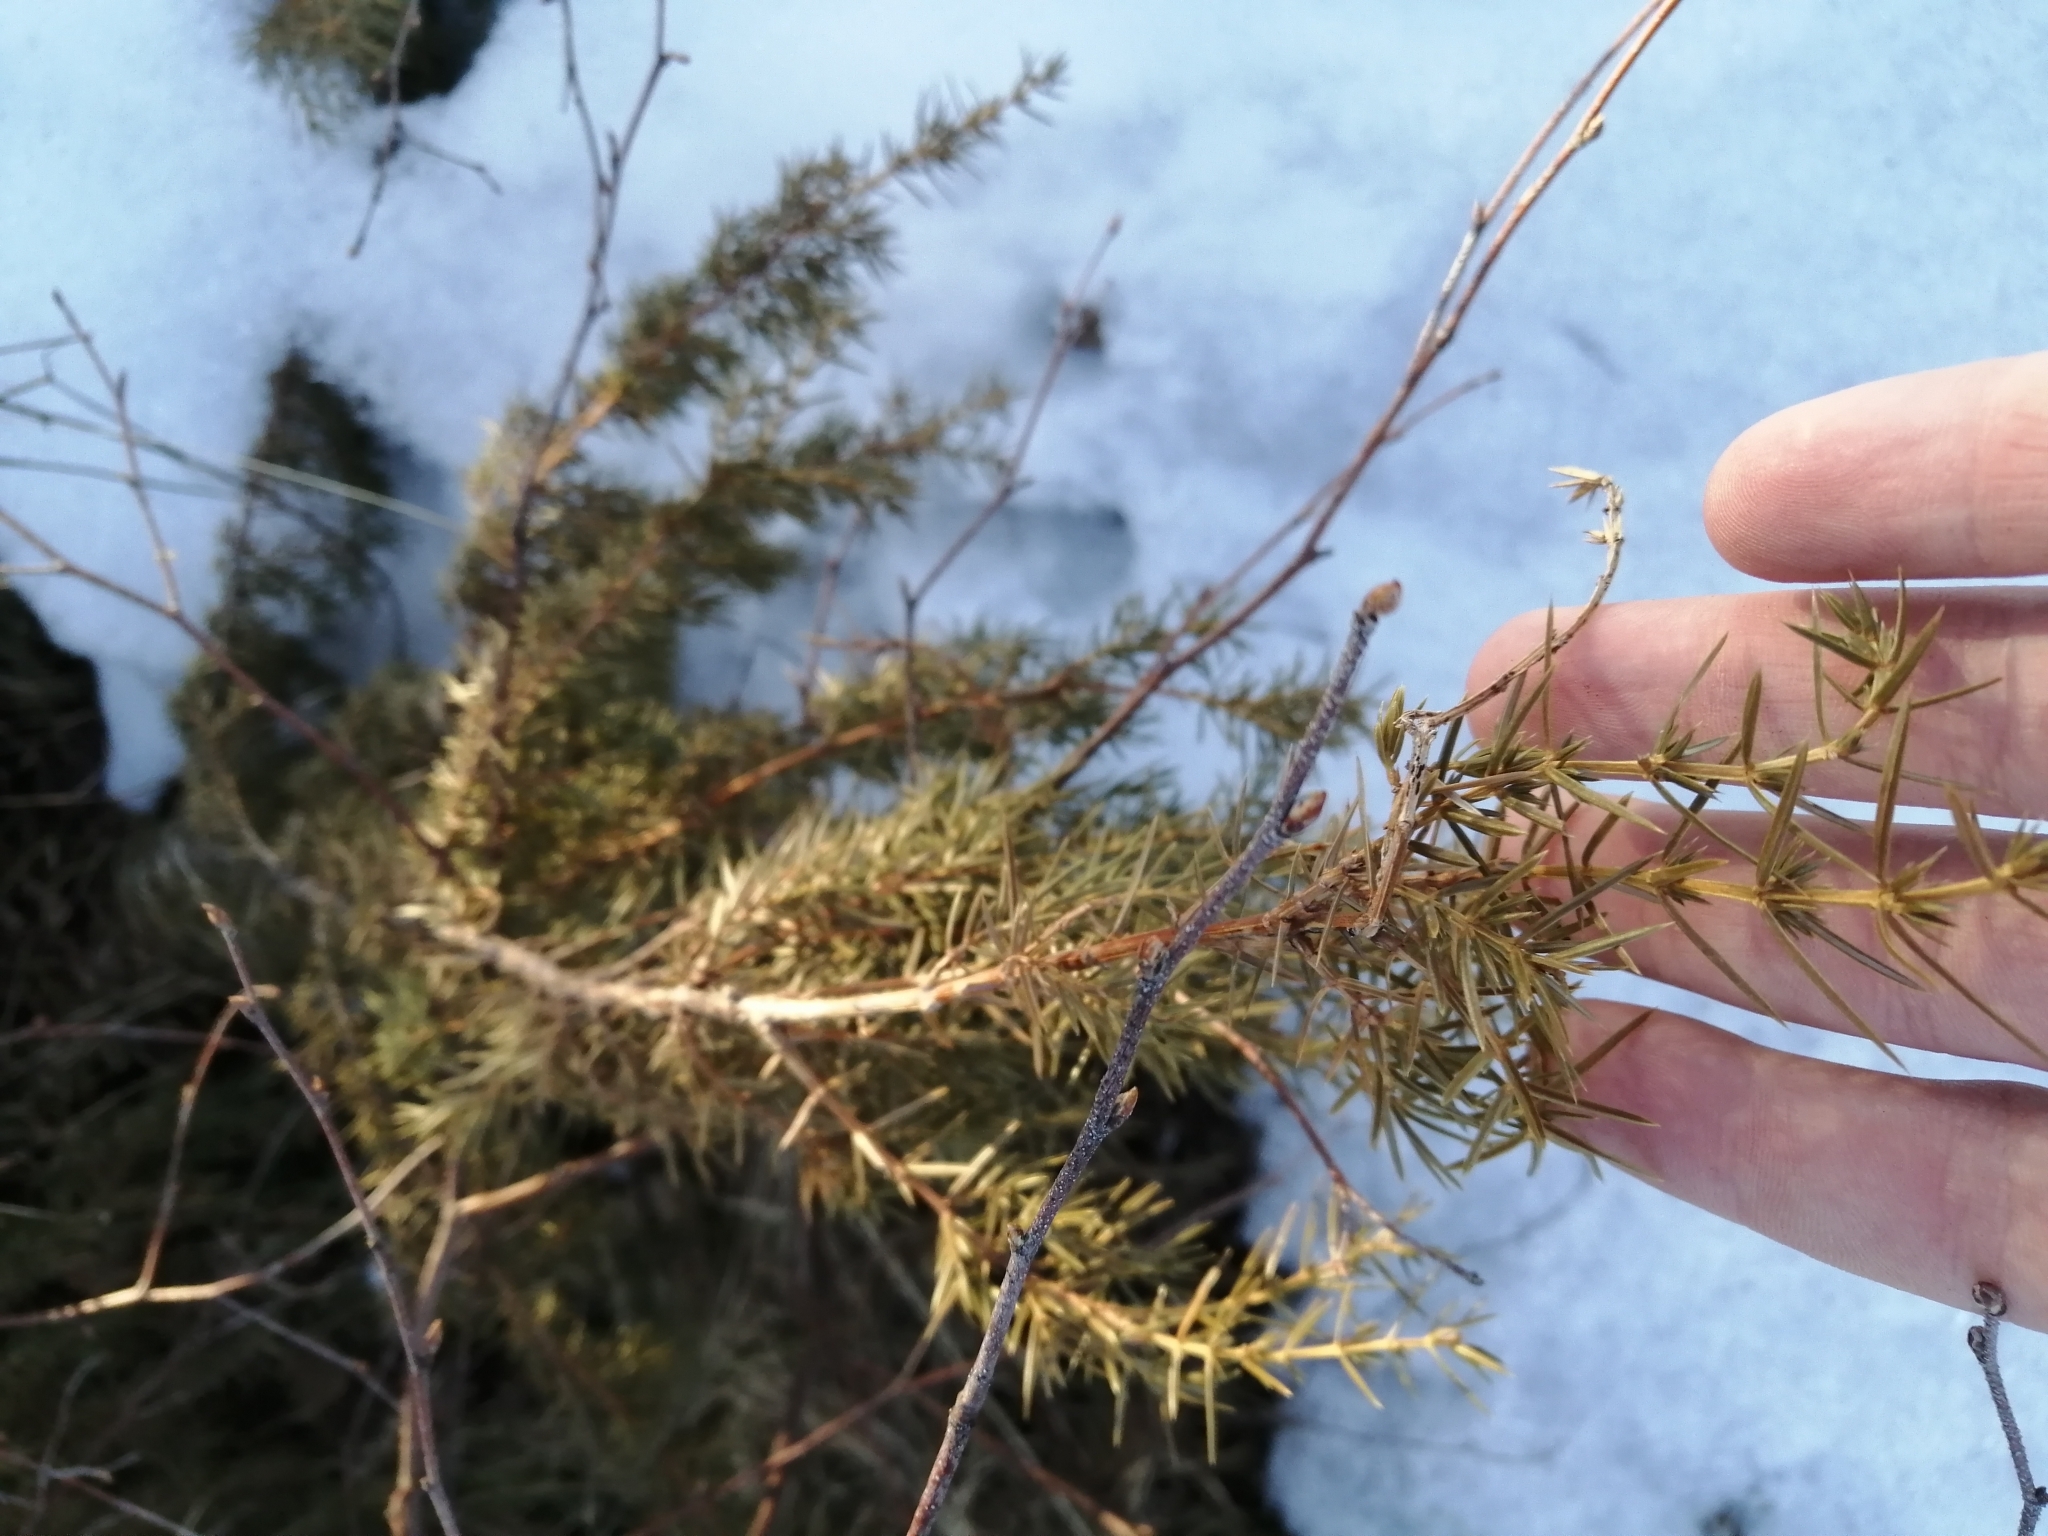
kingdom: Plantae
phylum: Tracheophyta
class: Pinopsida
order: Pinales
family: Cupressaceae
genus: Juniperus
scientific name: Juniperus communis
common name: Common juniper
